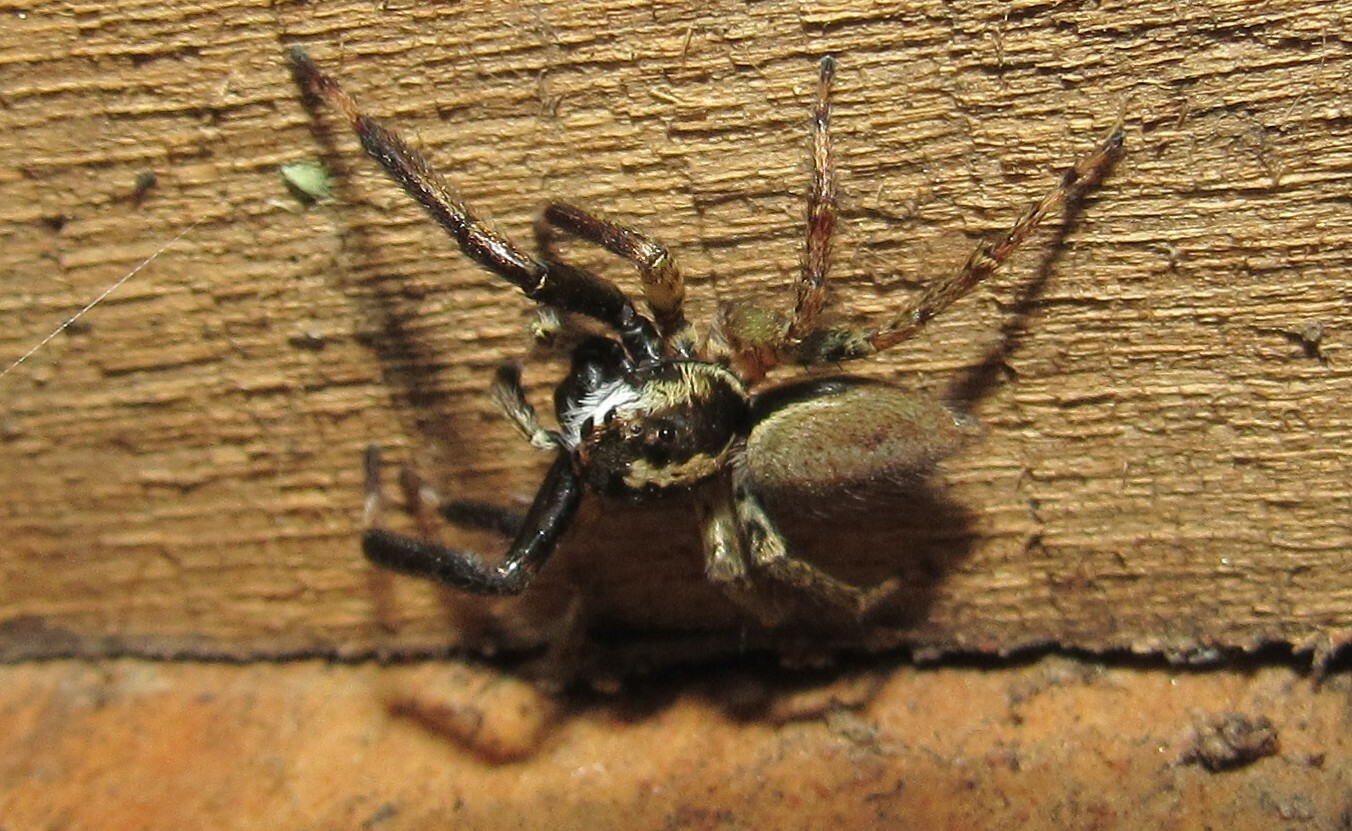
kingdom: Animalia
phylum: Arthropoda
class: Arachnida
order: Araneae
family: Salticidae
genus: Asaphobelis
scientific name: Asaphobelis physonychus
